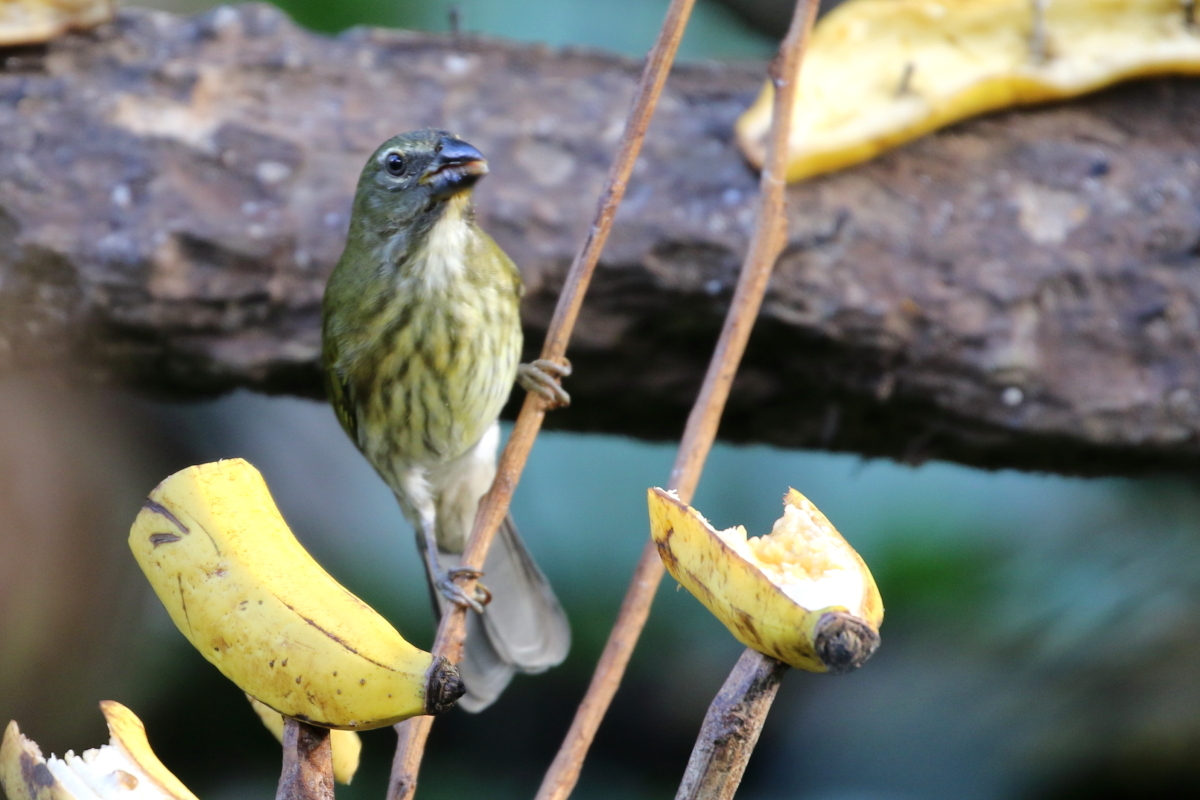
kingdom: Animalia
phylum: Chordata
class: Aves
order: Passeriformes
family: Thraupidae
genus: Saltator
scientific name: Saltator striatipectus
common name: Streaked saltator
